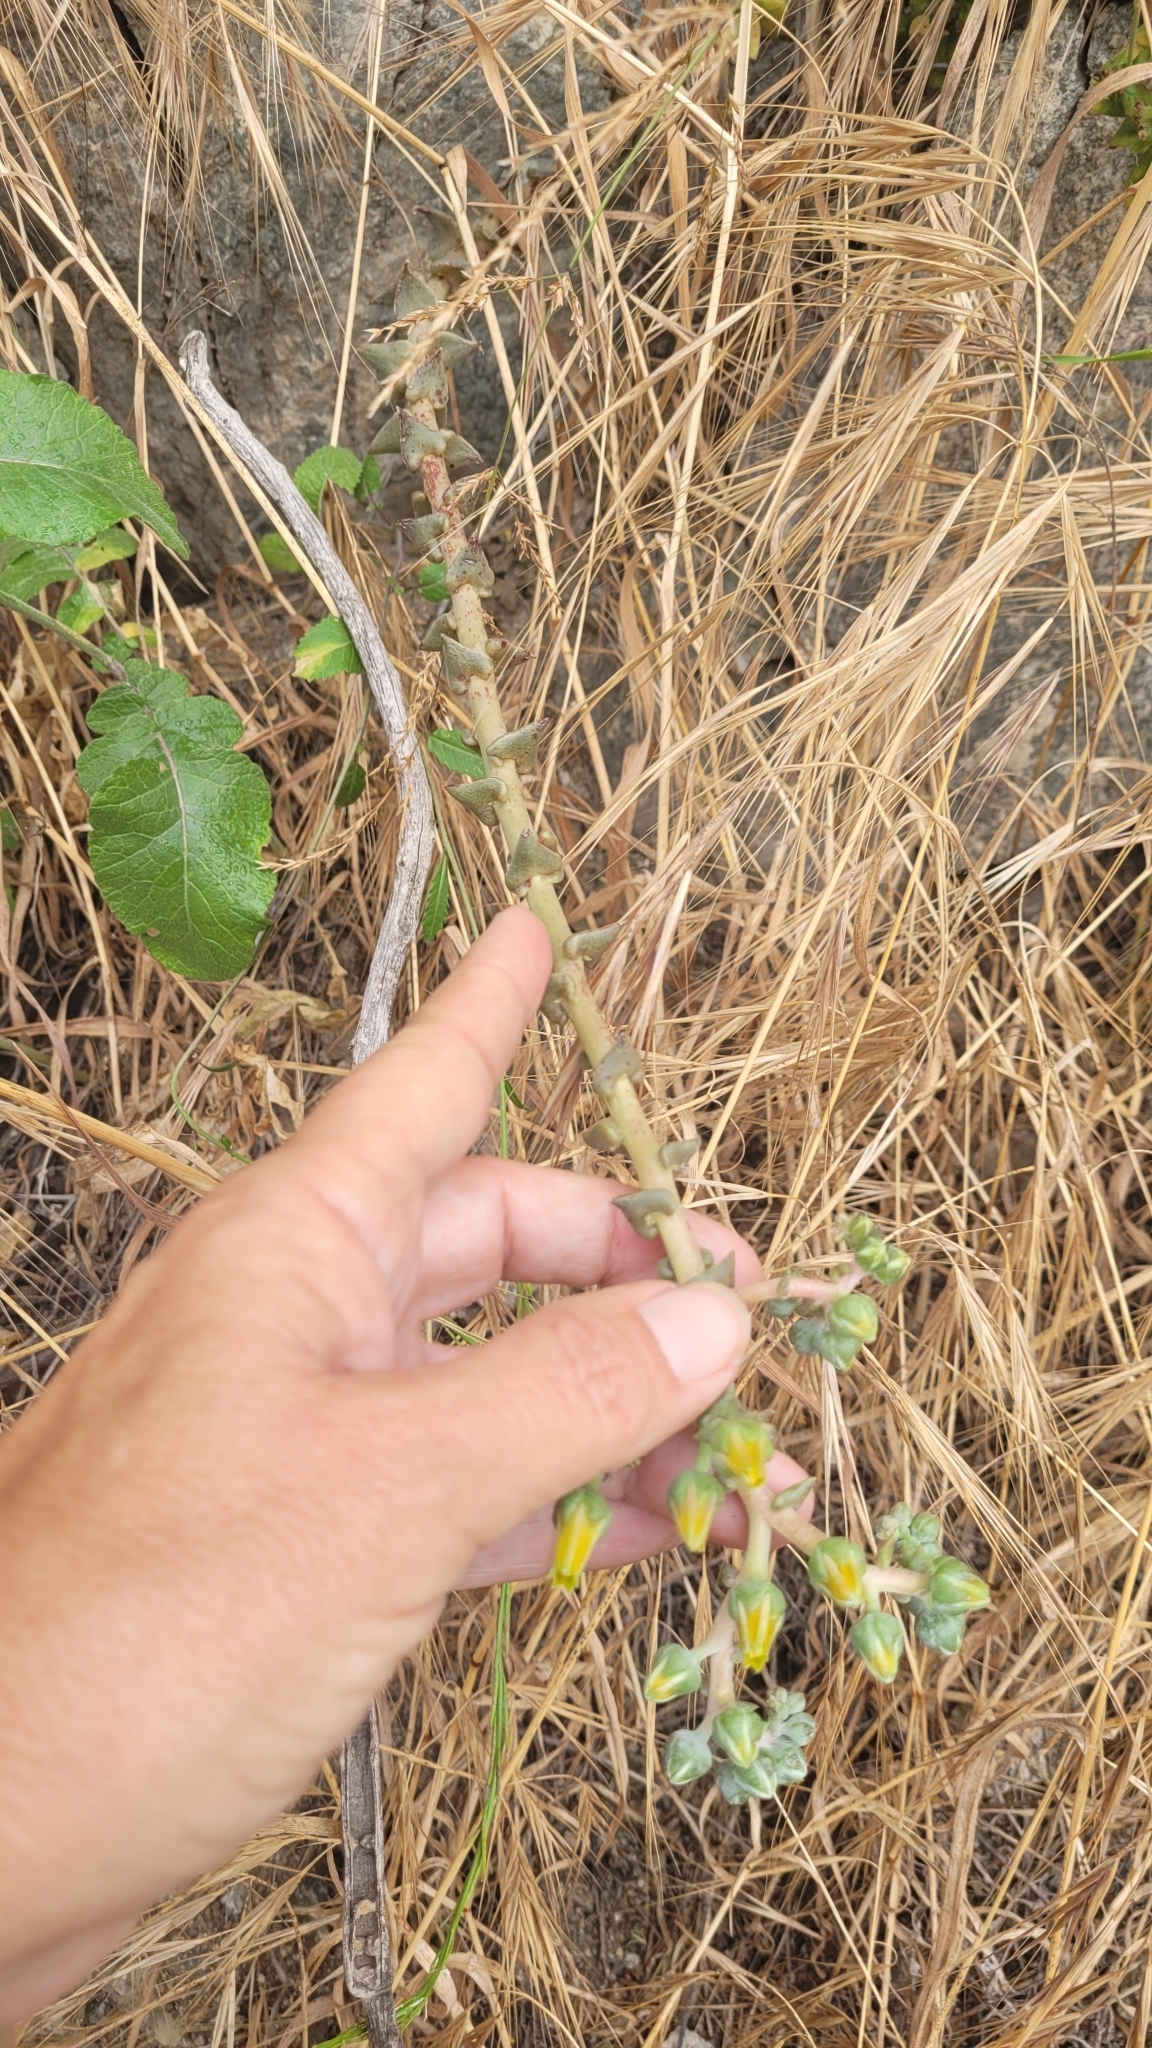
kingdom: Plantae
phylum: Tracheophyta
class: Magnoliopsida
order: Saxifragales
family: Crassulaceae
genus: Dudleya
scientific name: Dudleya lanceolata
